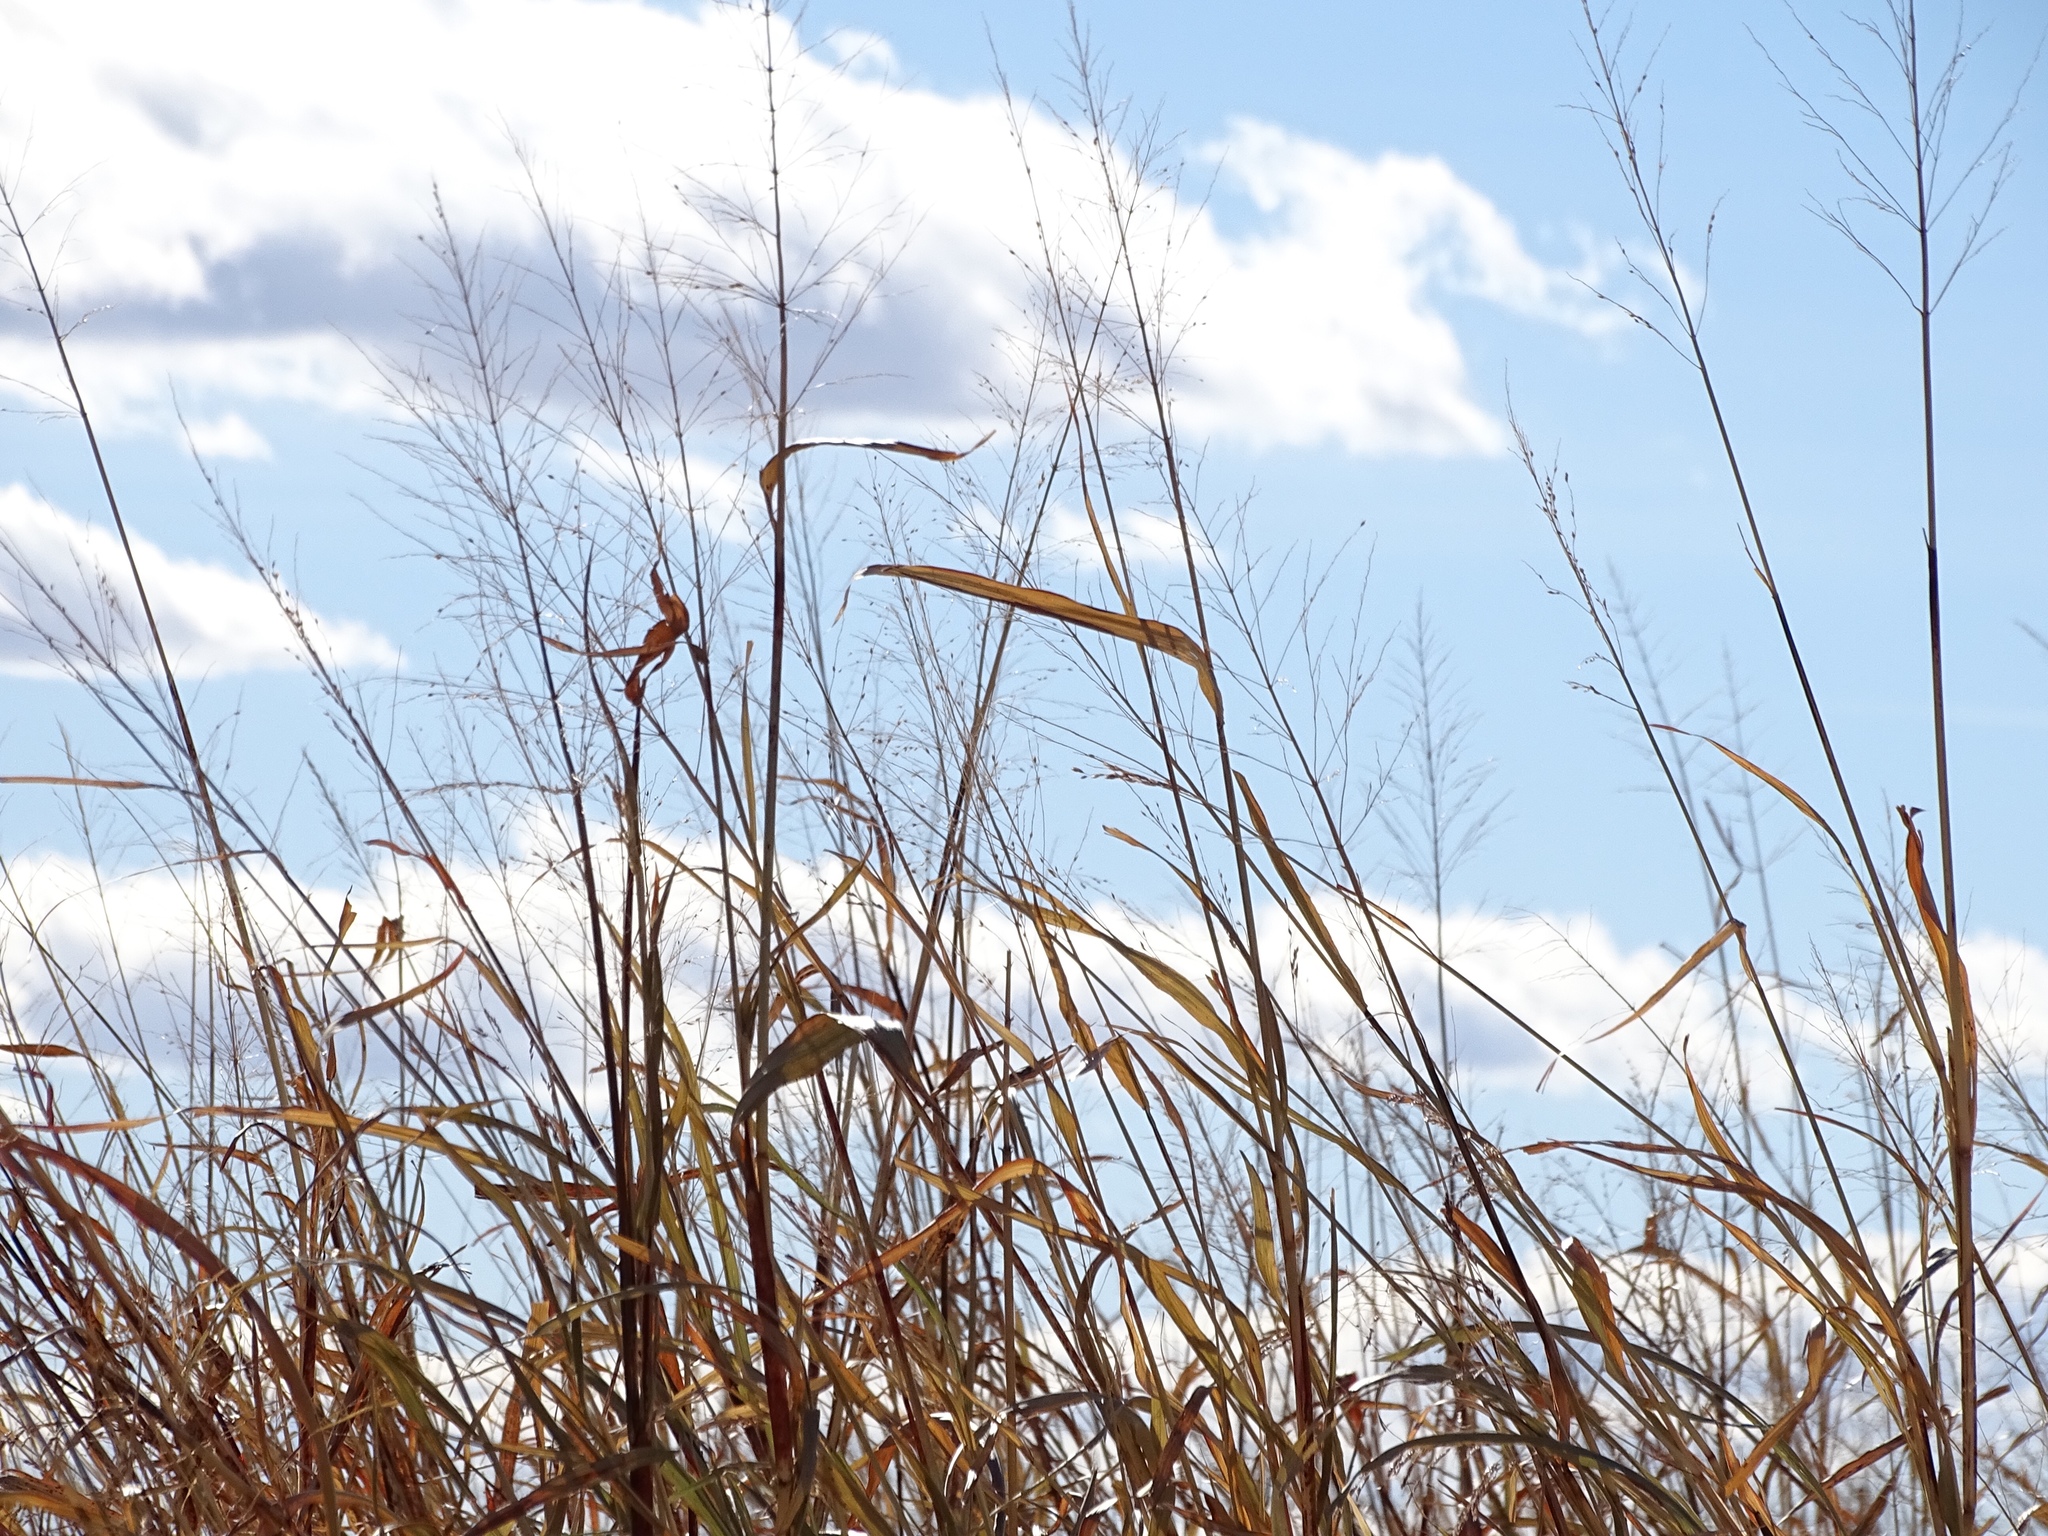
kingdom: Plantae
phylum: Tracheophyta
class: Liliopsida
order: Poales
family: Poaceae
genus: Sporobolus
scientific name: Sporobolus airoides
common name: Alkali sacaton
